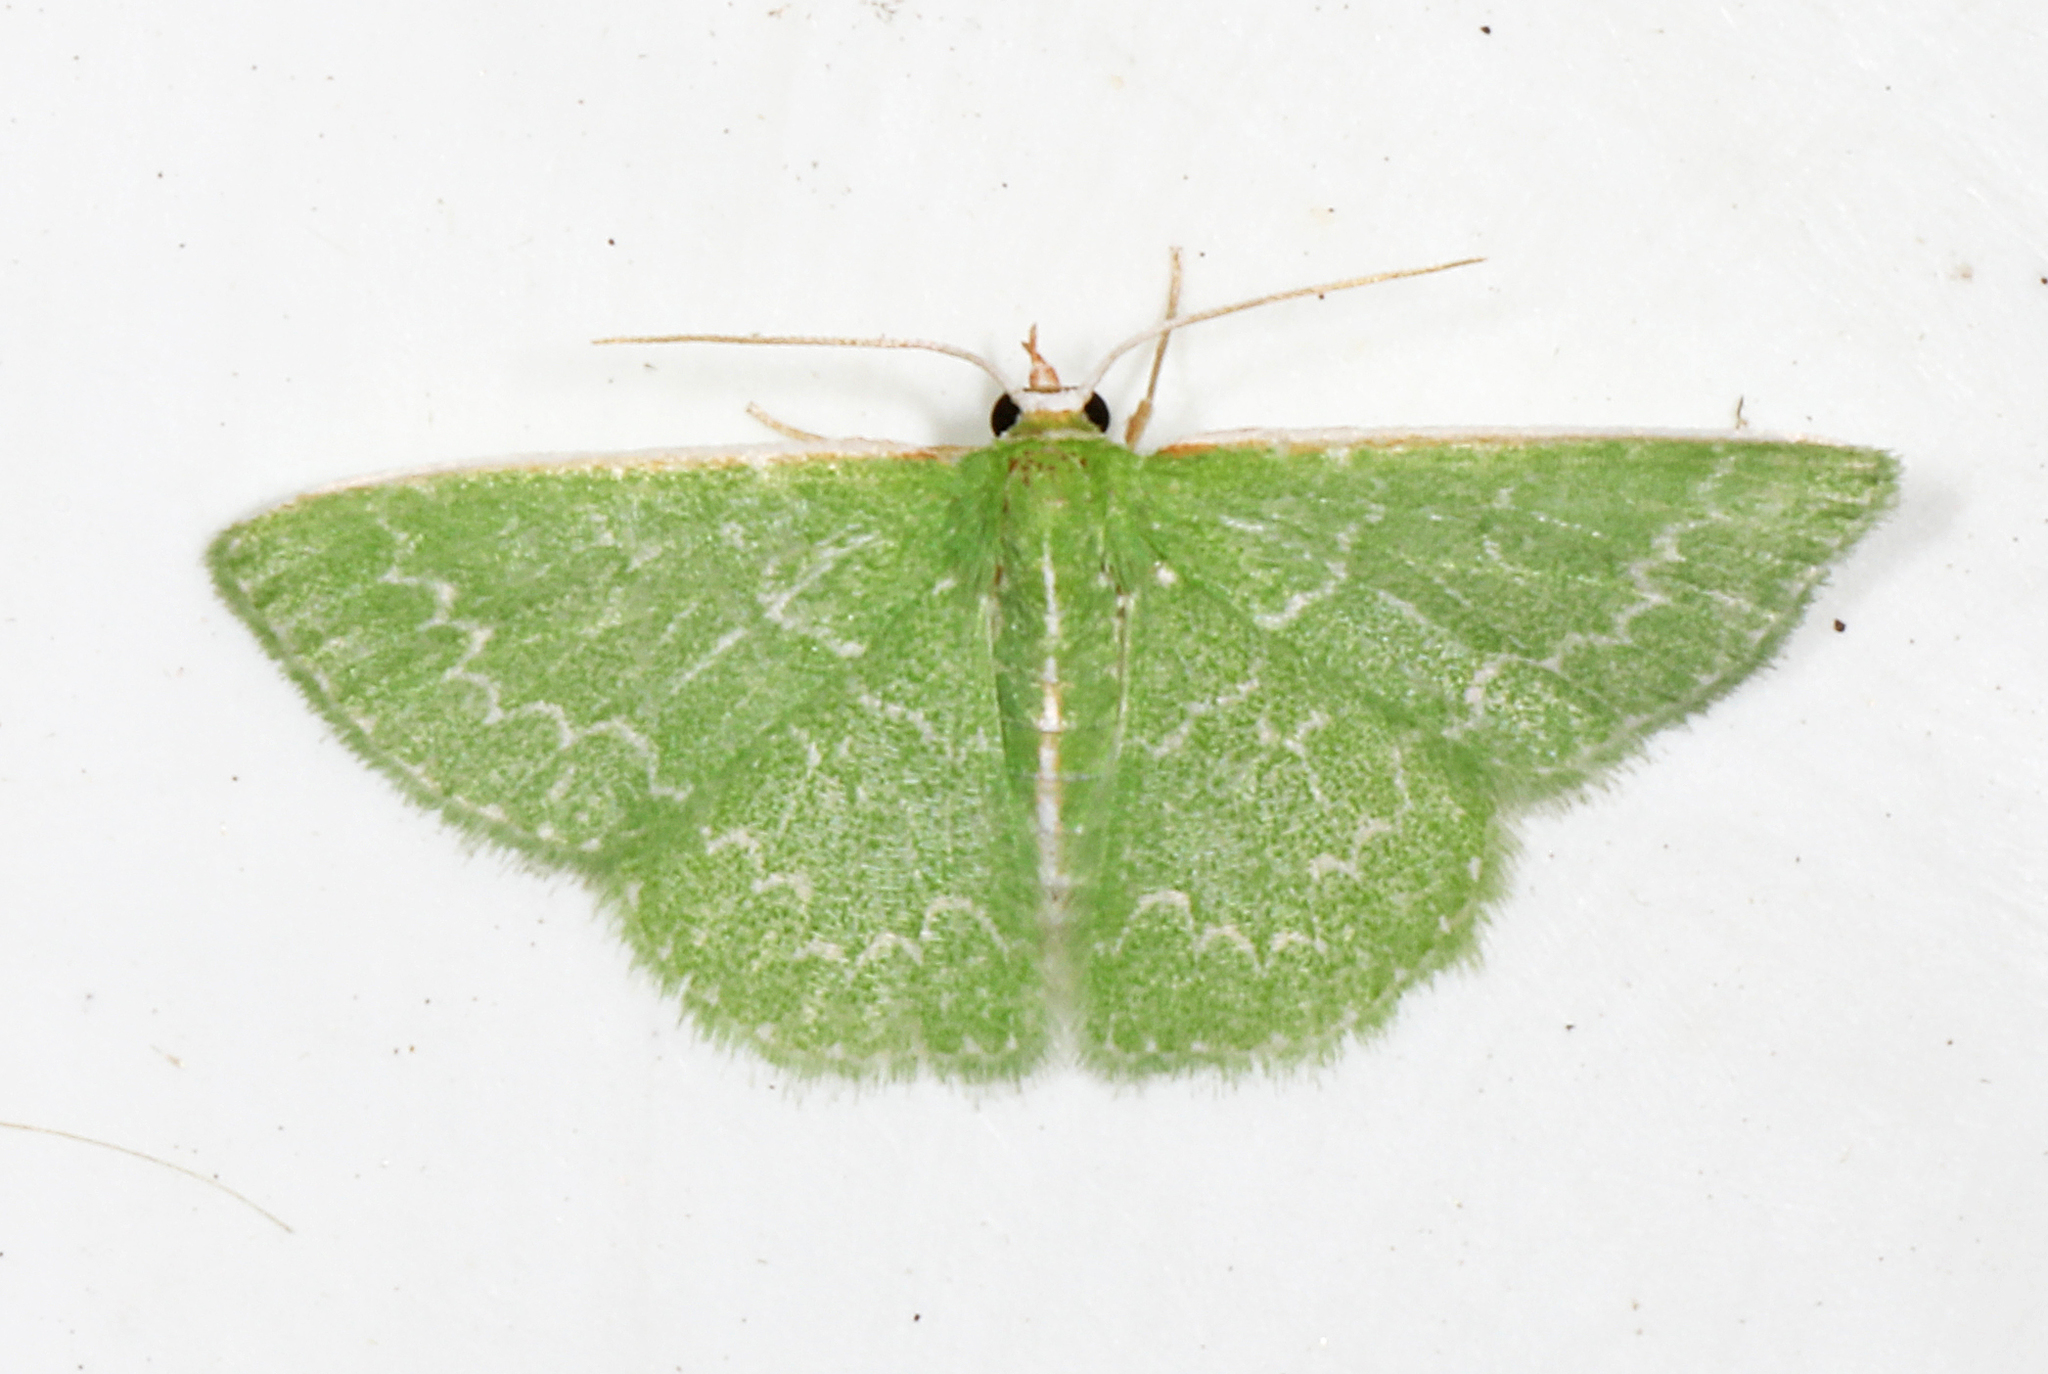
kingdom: Animalia
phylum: Arthropoda
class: Insecta
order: Lepidoptera
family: Geometridae
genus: Synchlora
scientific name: Synchlora frondaria
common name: Southern emerald
